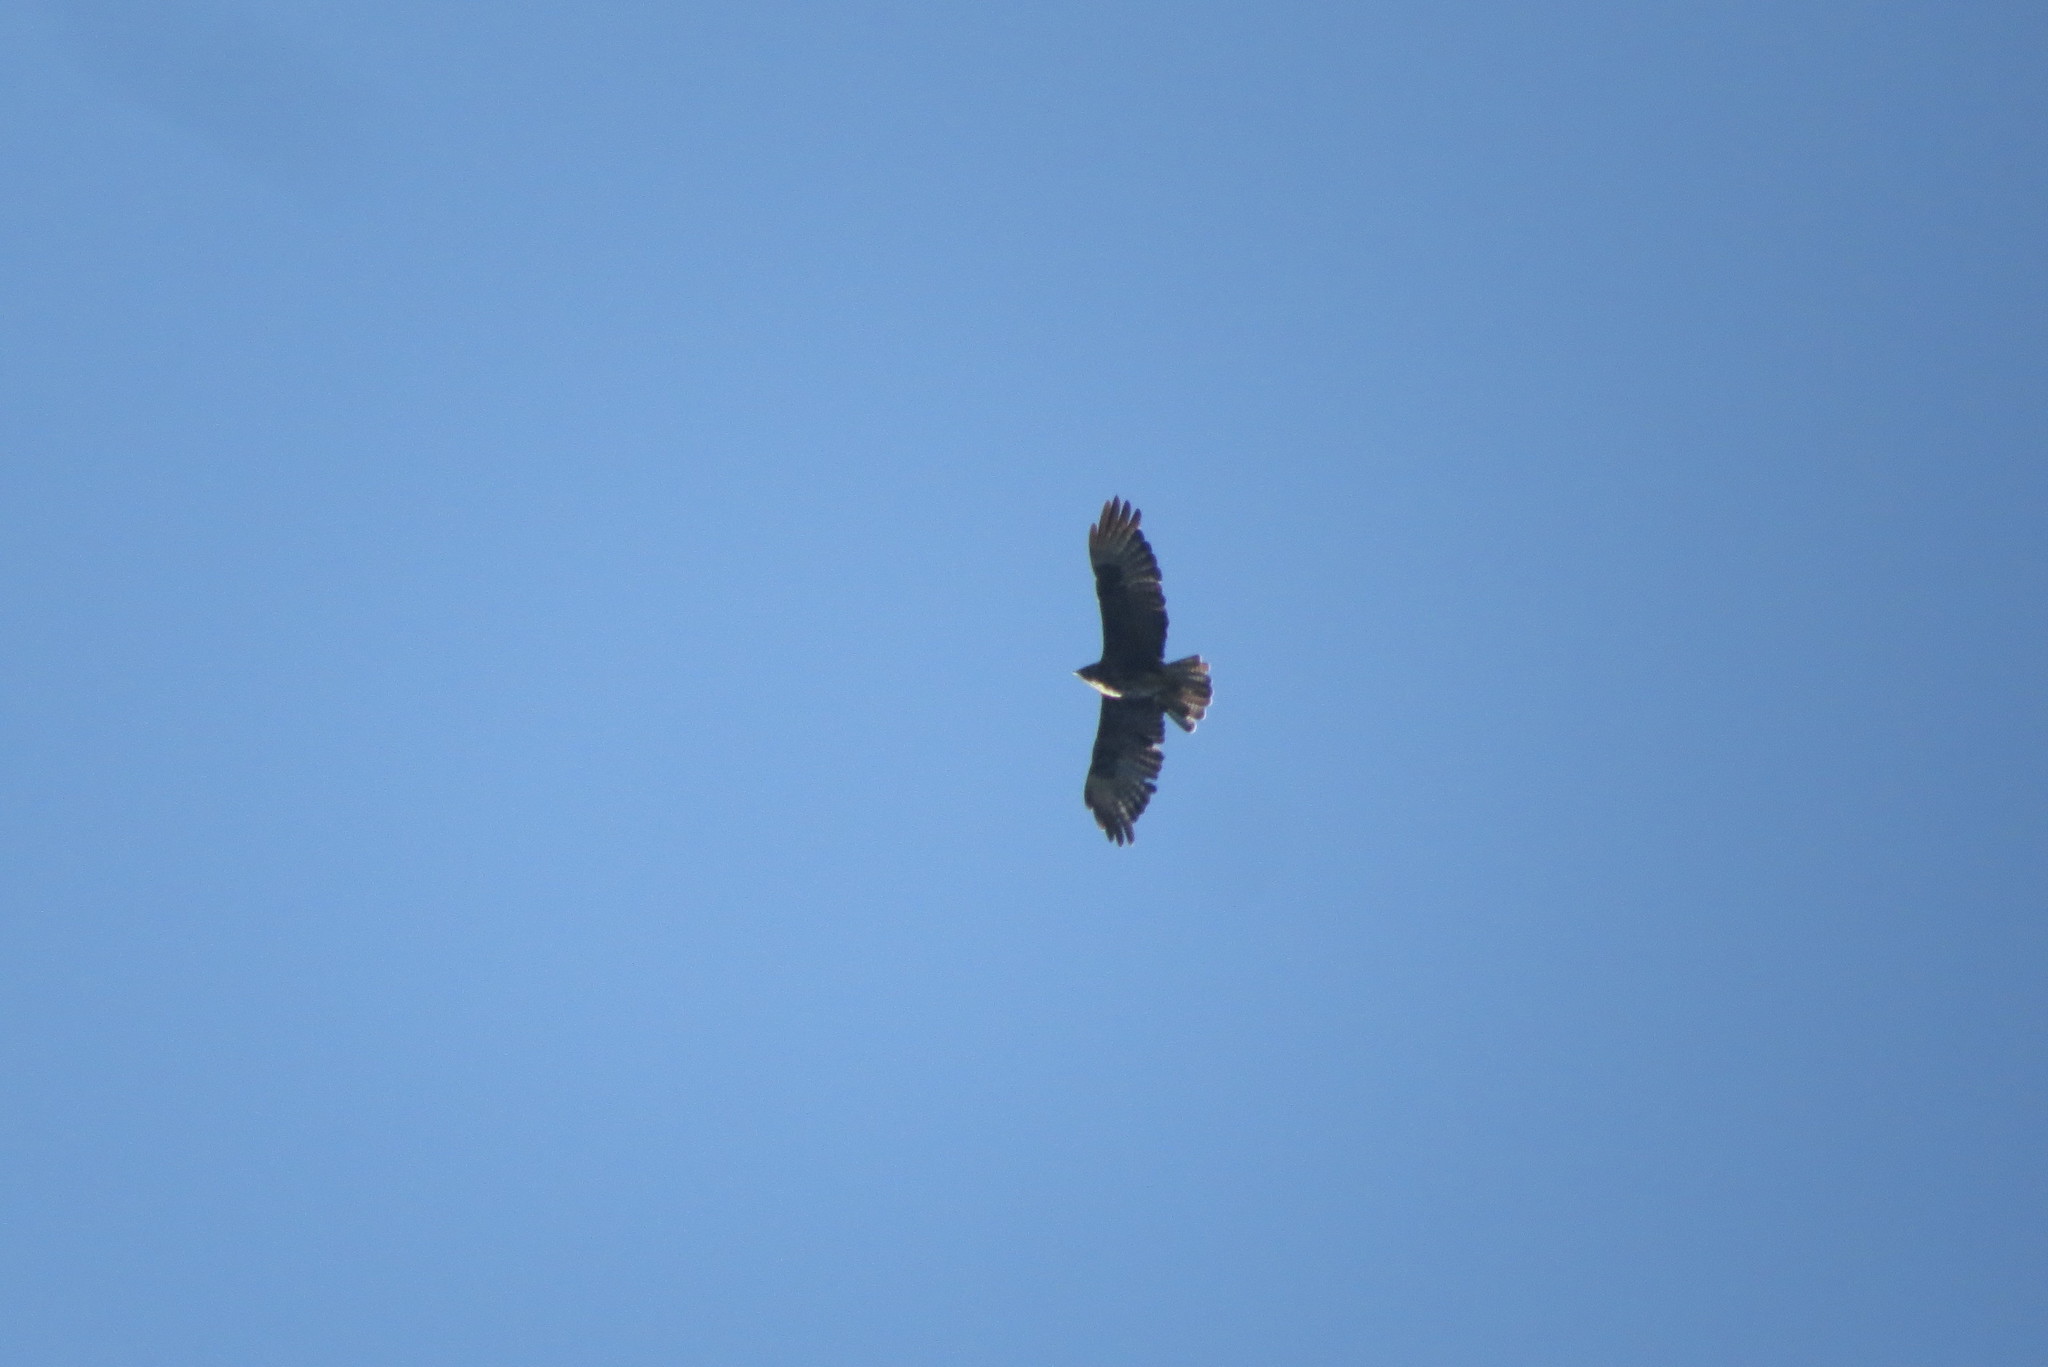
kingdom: Animalia
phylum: Chordata
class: Aves
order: Accipitriformes
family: Accipitridae
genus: Buteo
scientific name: Buteo buteo
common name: Common buzzard
